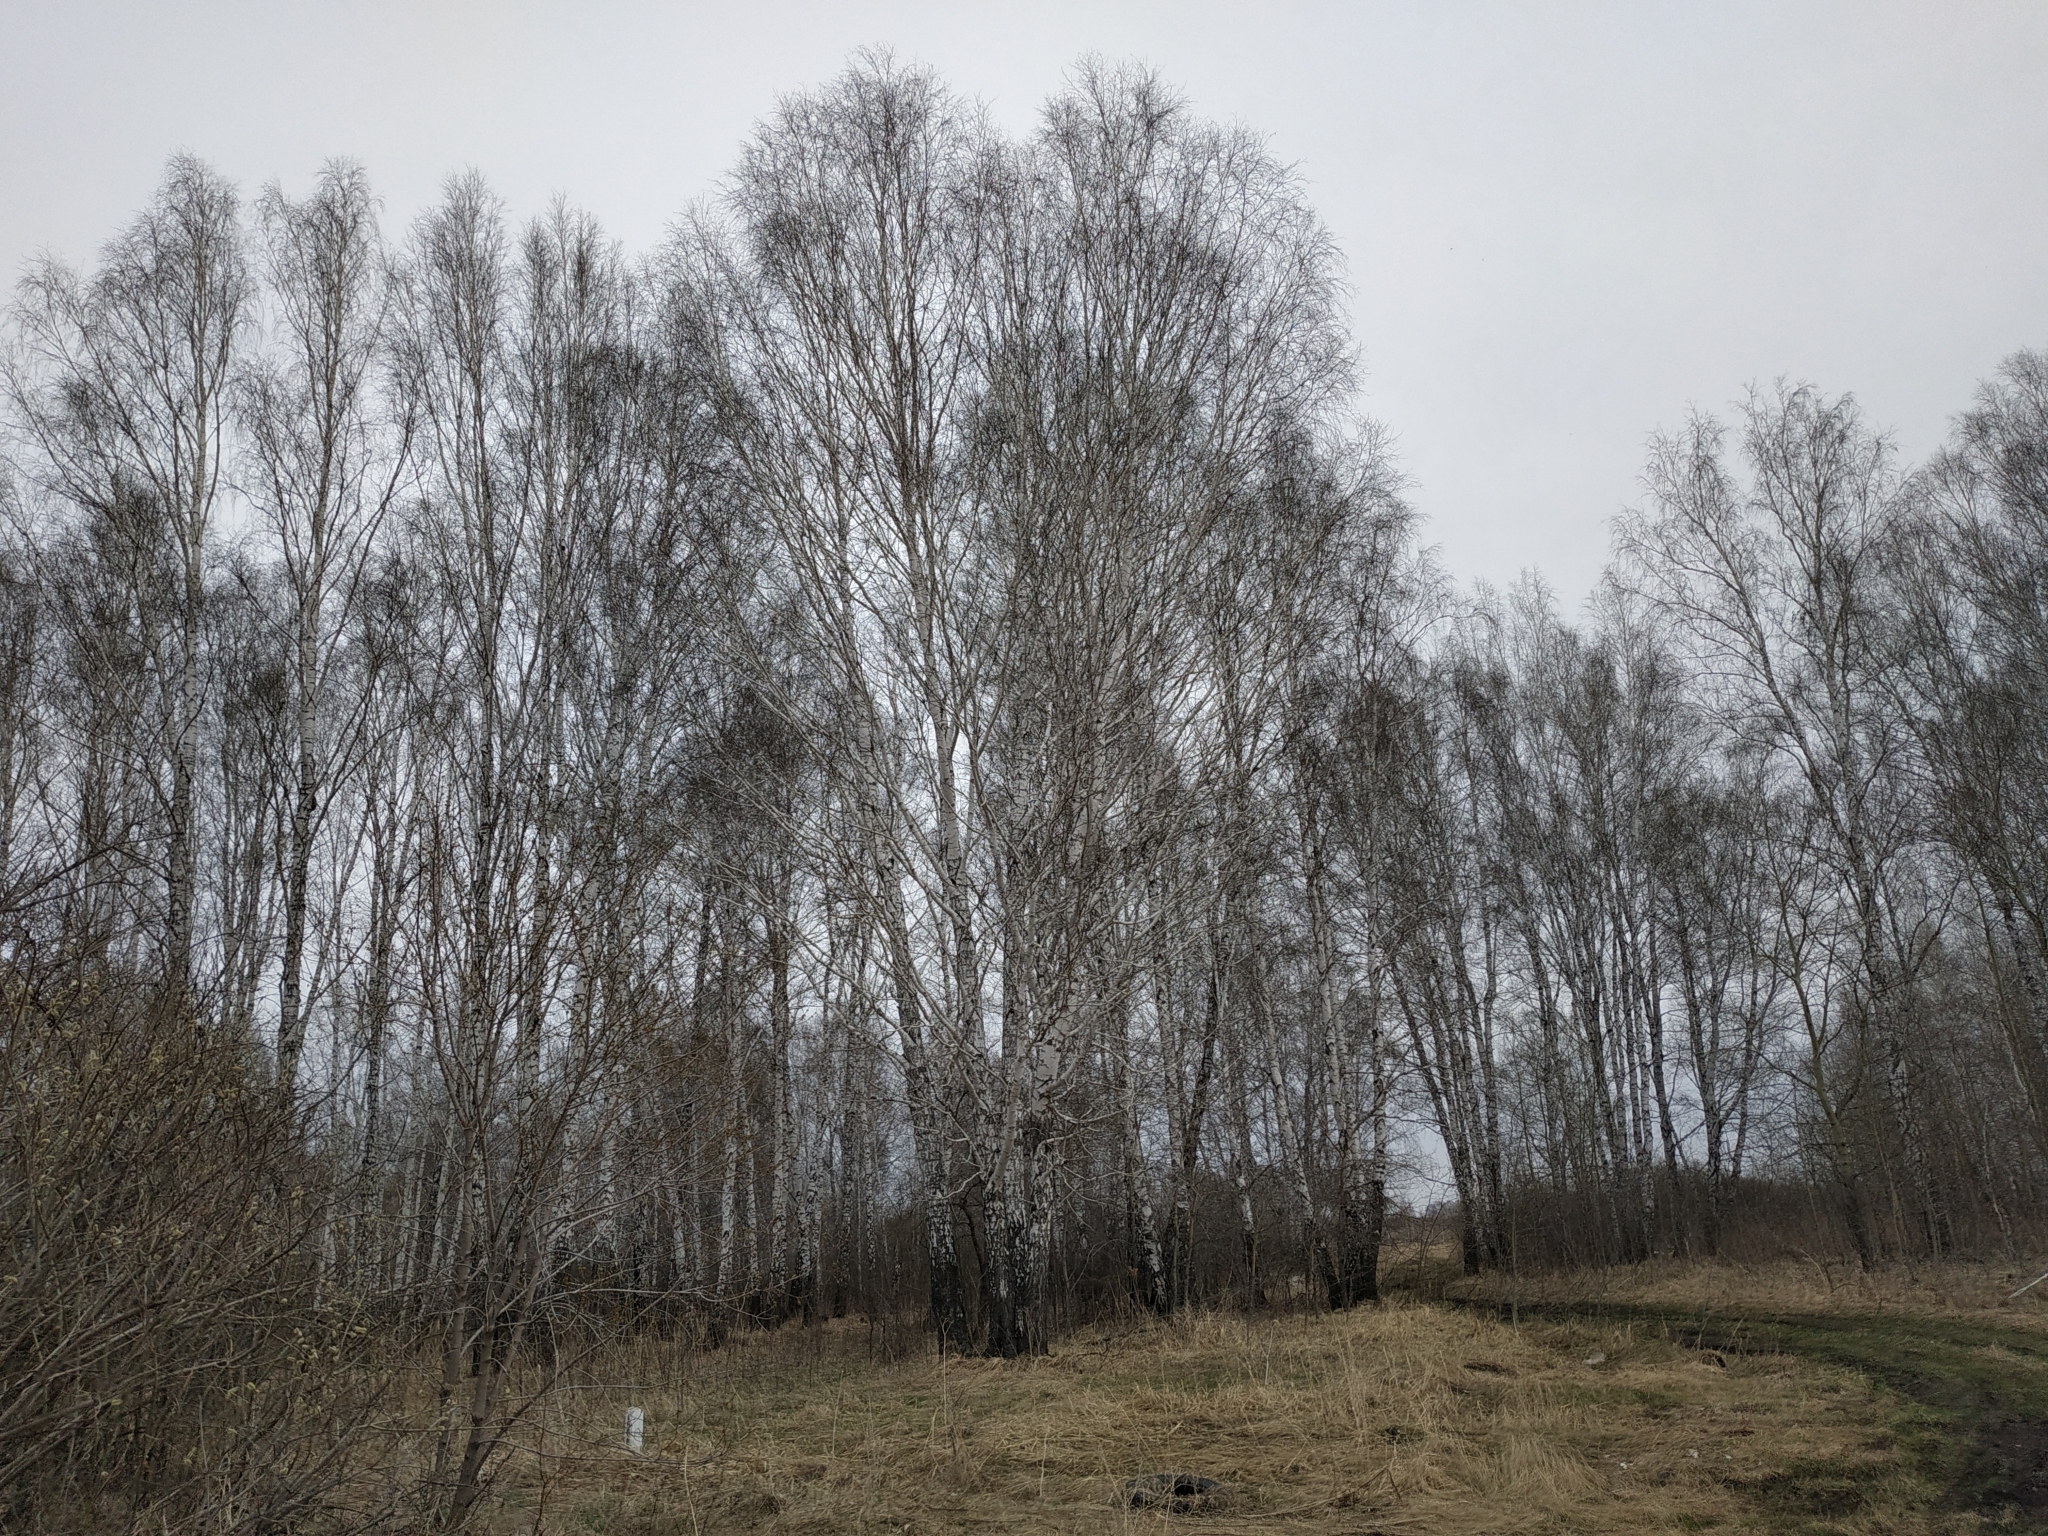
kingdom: Plantae
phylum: Tracheophyta
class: Magnoliopsida
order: Fagales
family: Betulaceae
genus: Betula
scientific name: Betula pendula
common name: Silver birch
